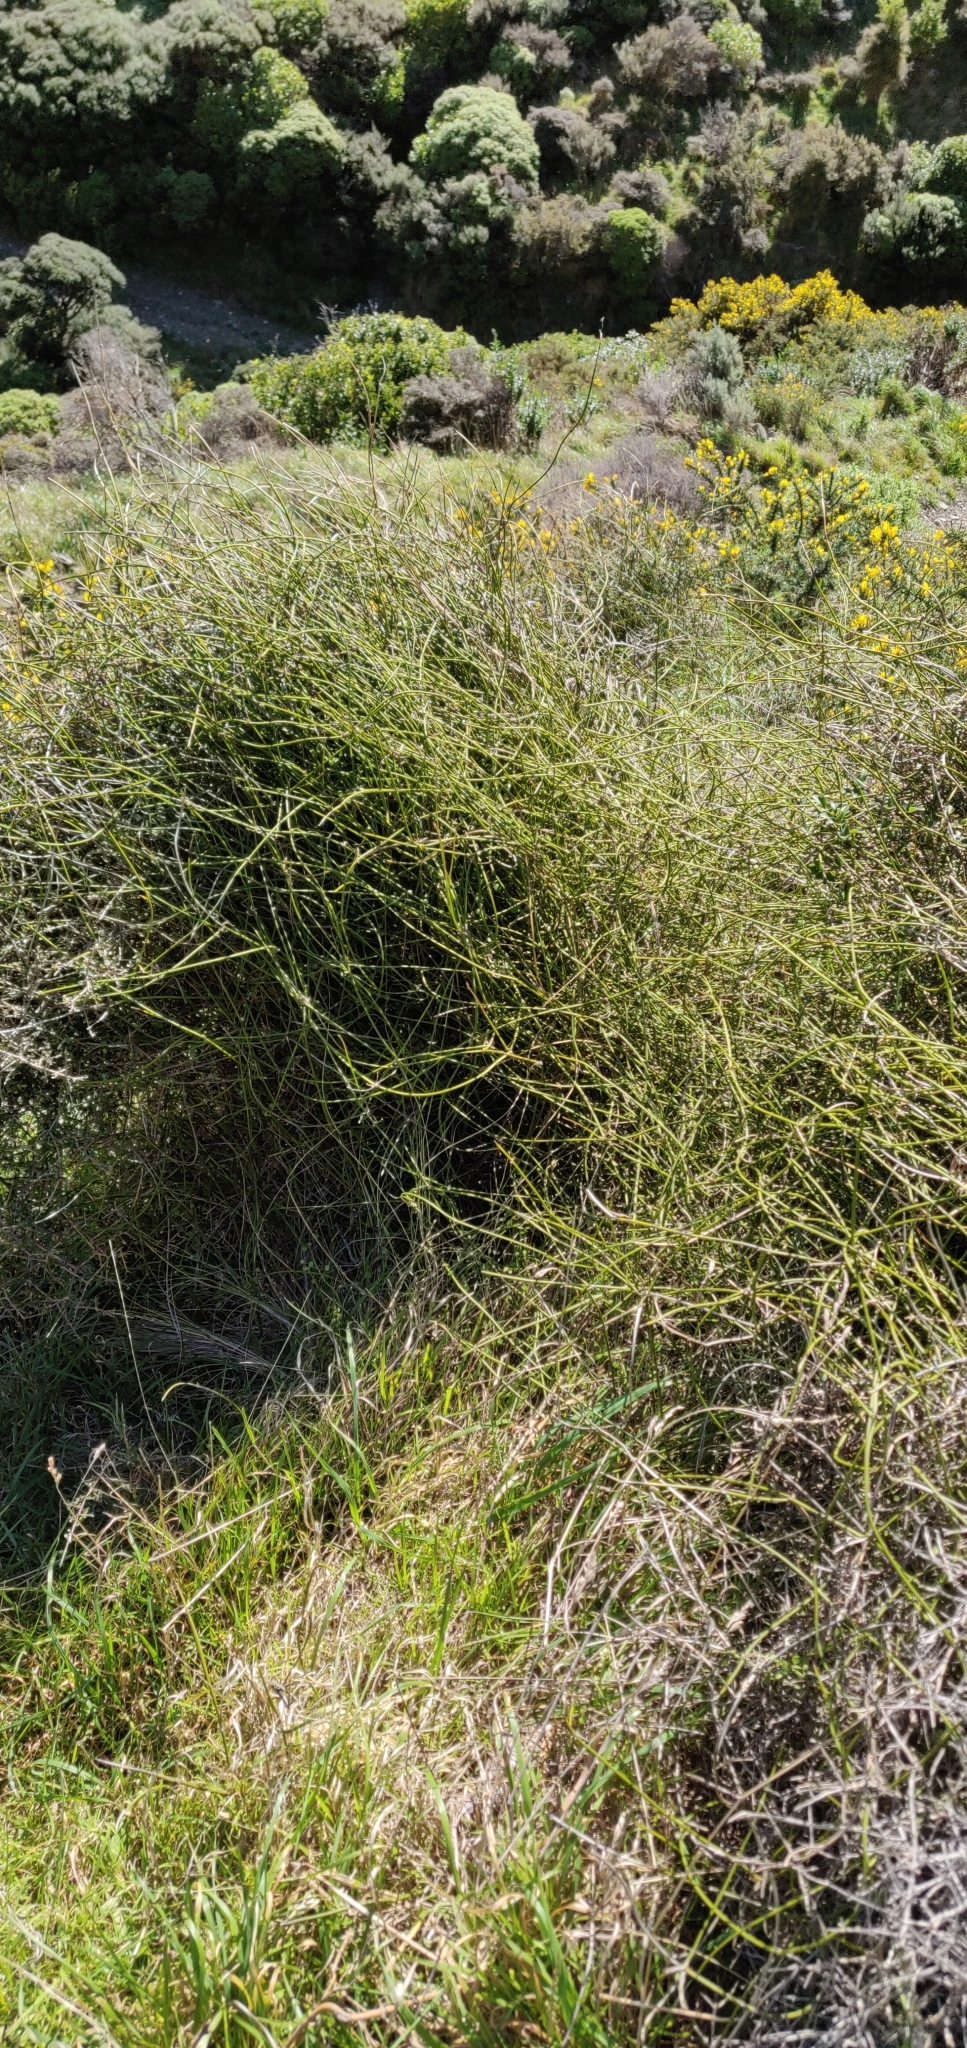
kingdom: Plantae
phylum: Tracheophyta
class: Magnoliopsida
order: Ranunculales
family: Ranunculaceae
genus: Clematis
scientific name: Clematis afoliata
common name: Rush-stem clematis
